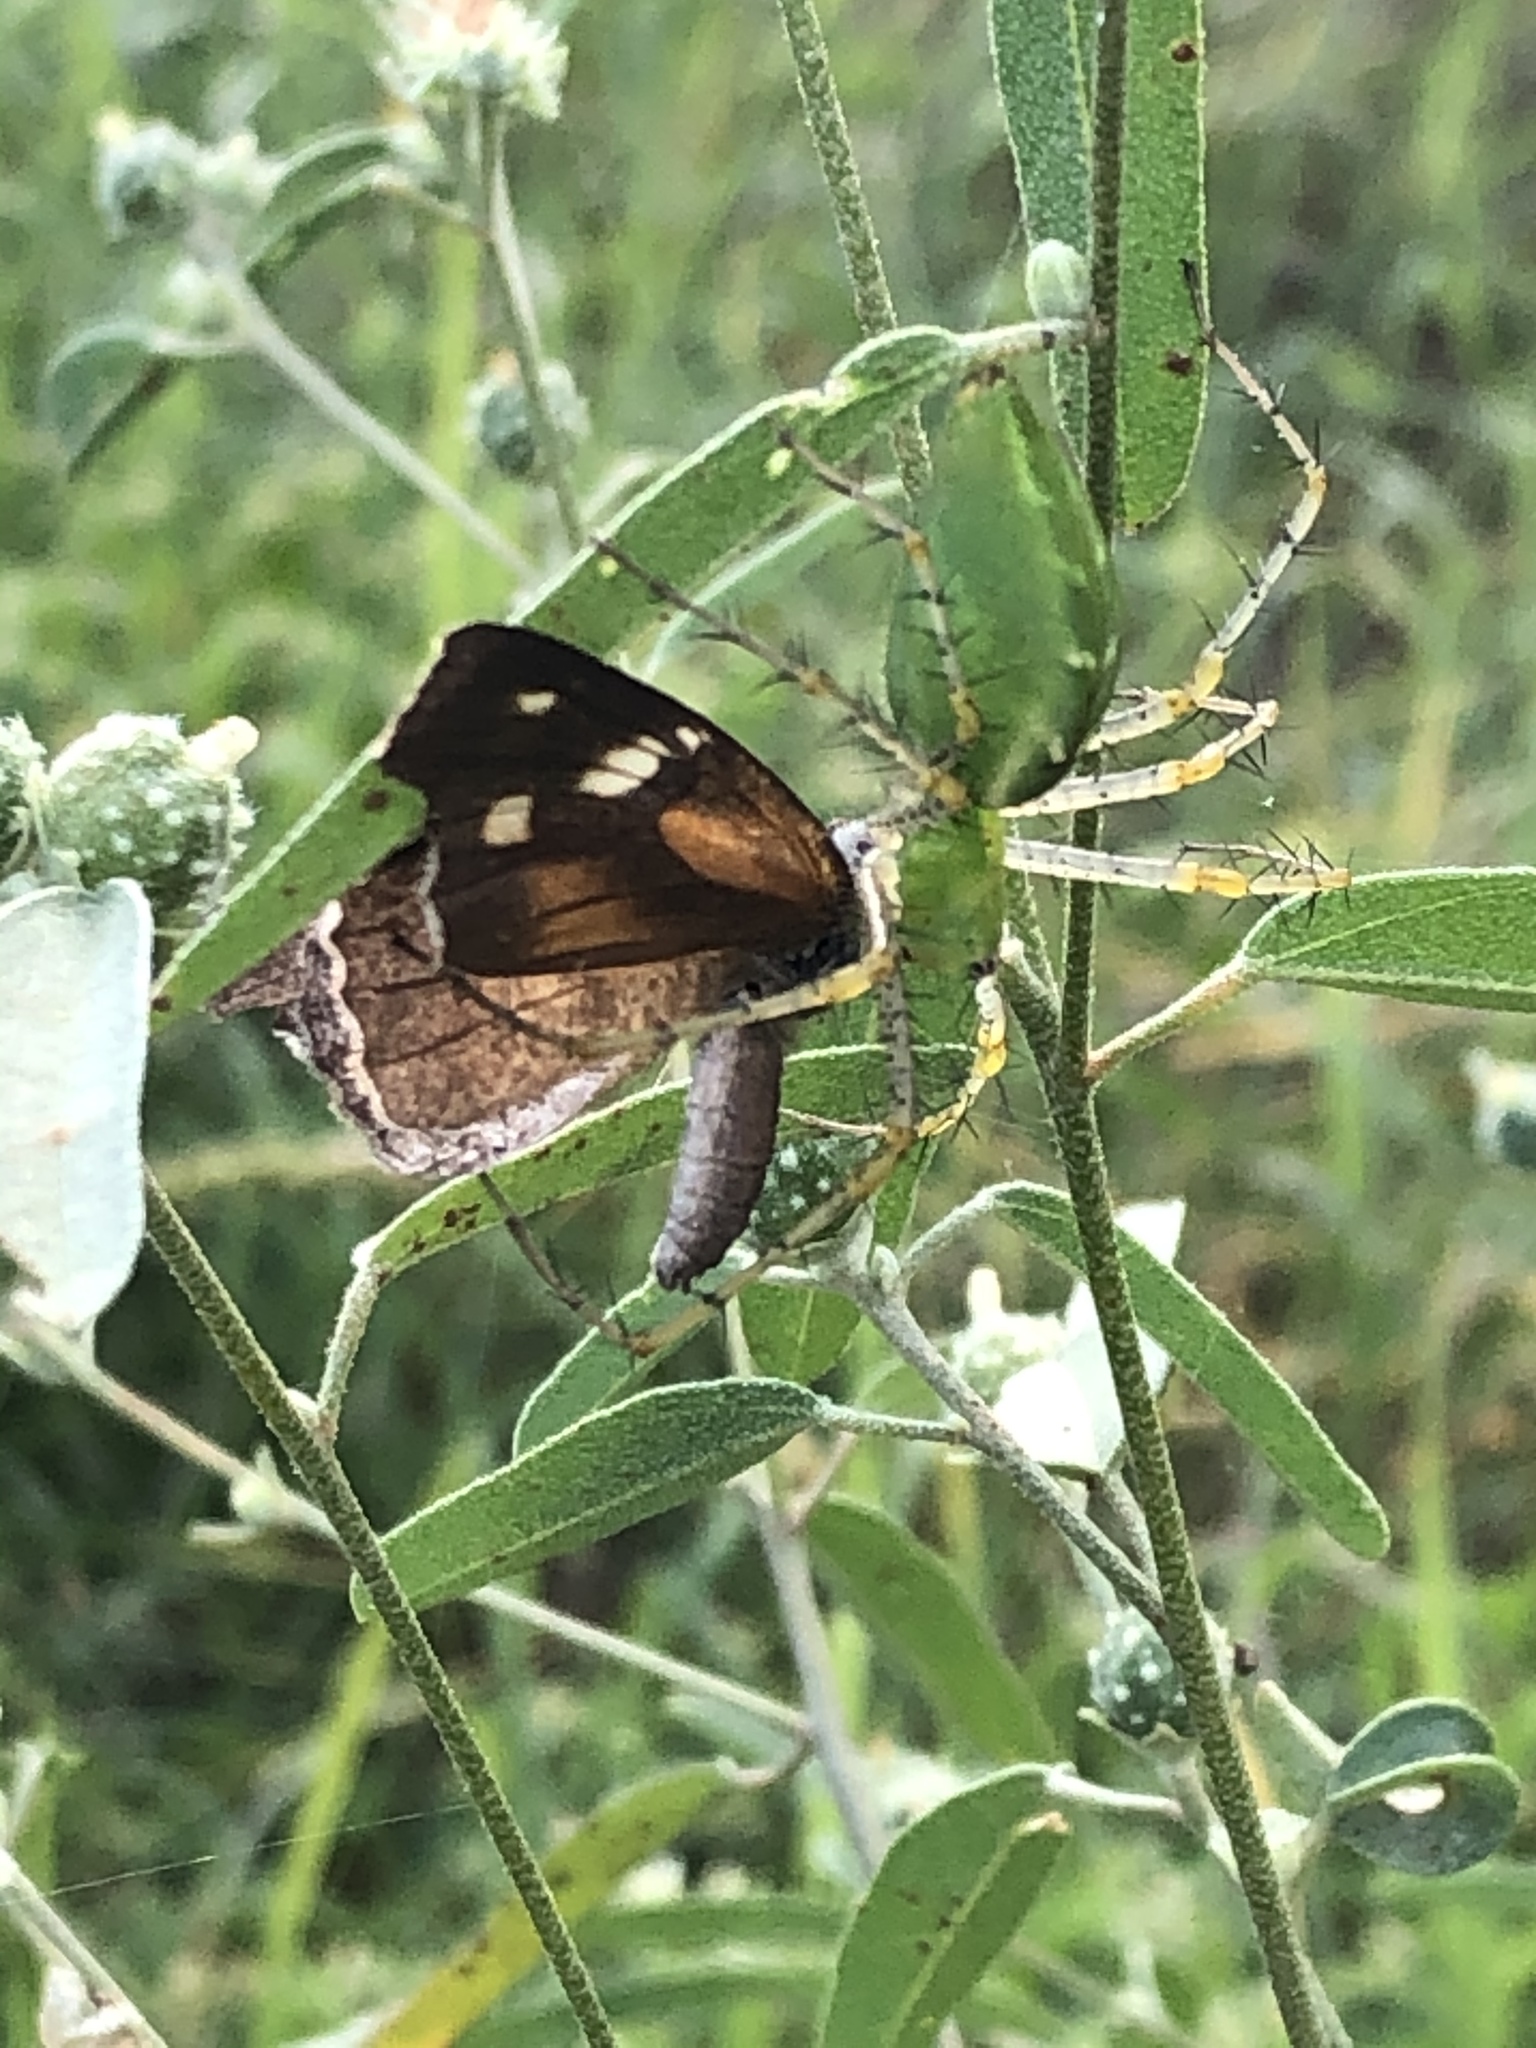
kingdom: Animalia
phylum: Arthropoda
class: Insecta
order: Lepidoptera
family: Nymphalidae
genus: Libytheana
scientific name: Libytheana carinenta
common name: American snout
